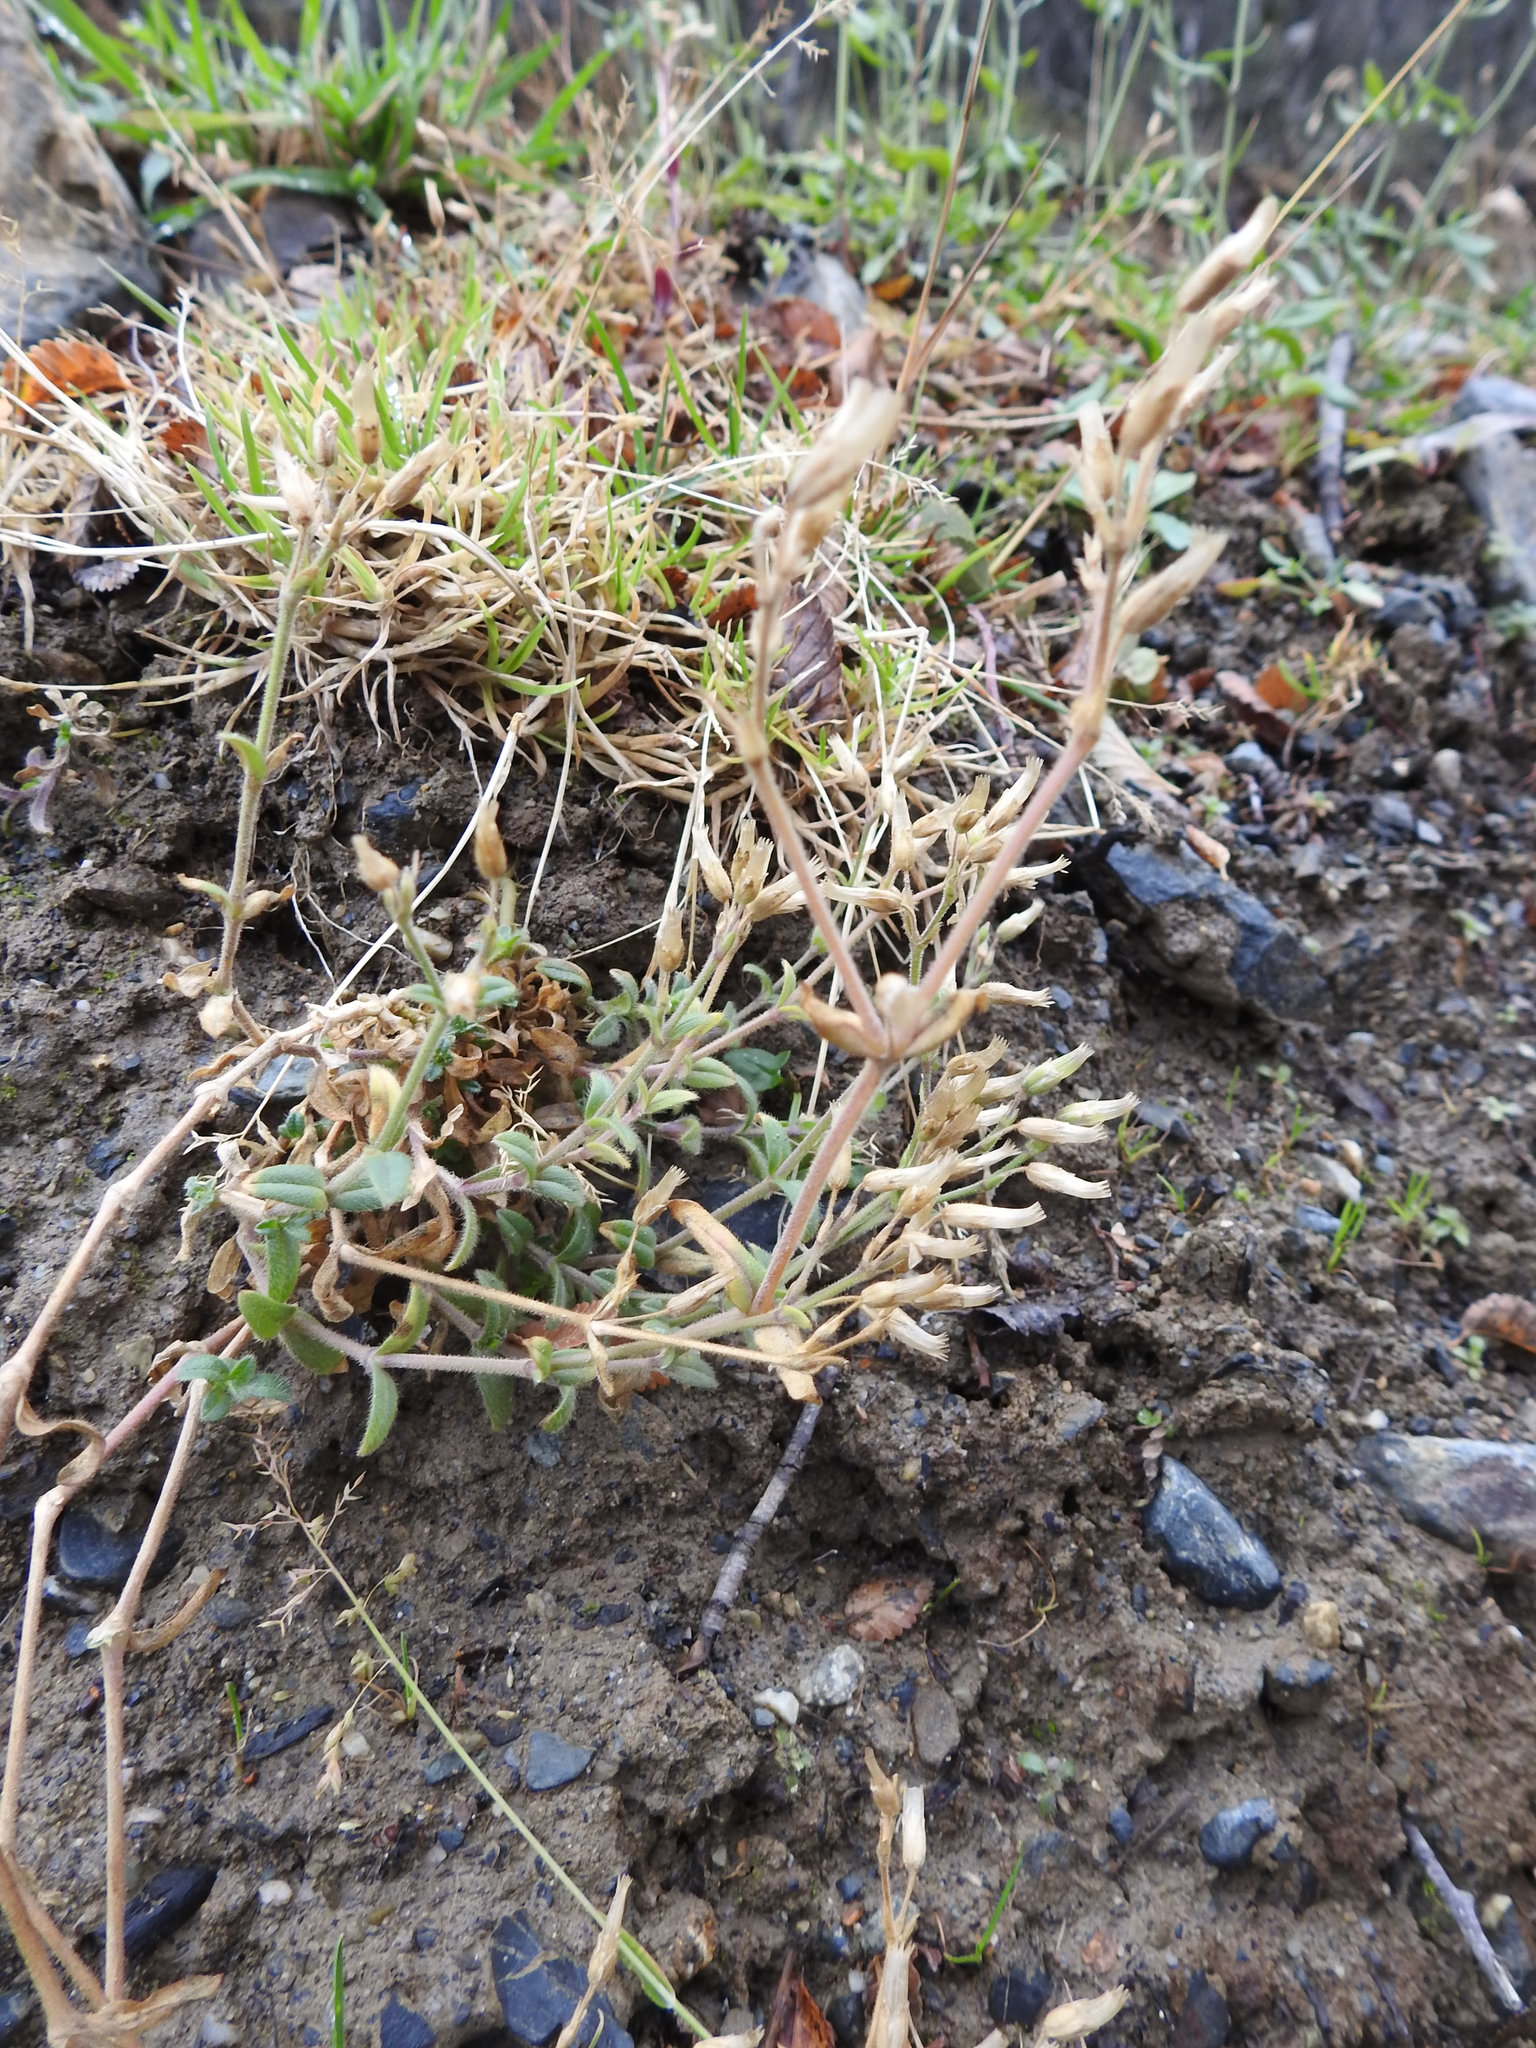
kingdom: Plantae
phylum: Tracheophyta
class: Magnoliopsida
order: Caryophyllales
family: Caryophyllaceae
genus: Cerastium
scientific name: Cerastium arvense
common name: Field mouse-ear
